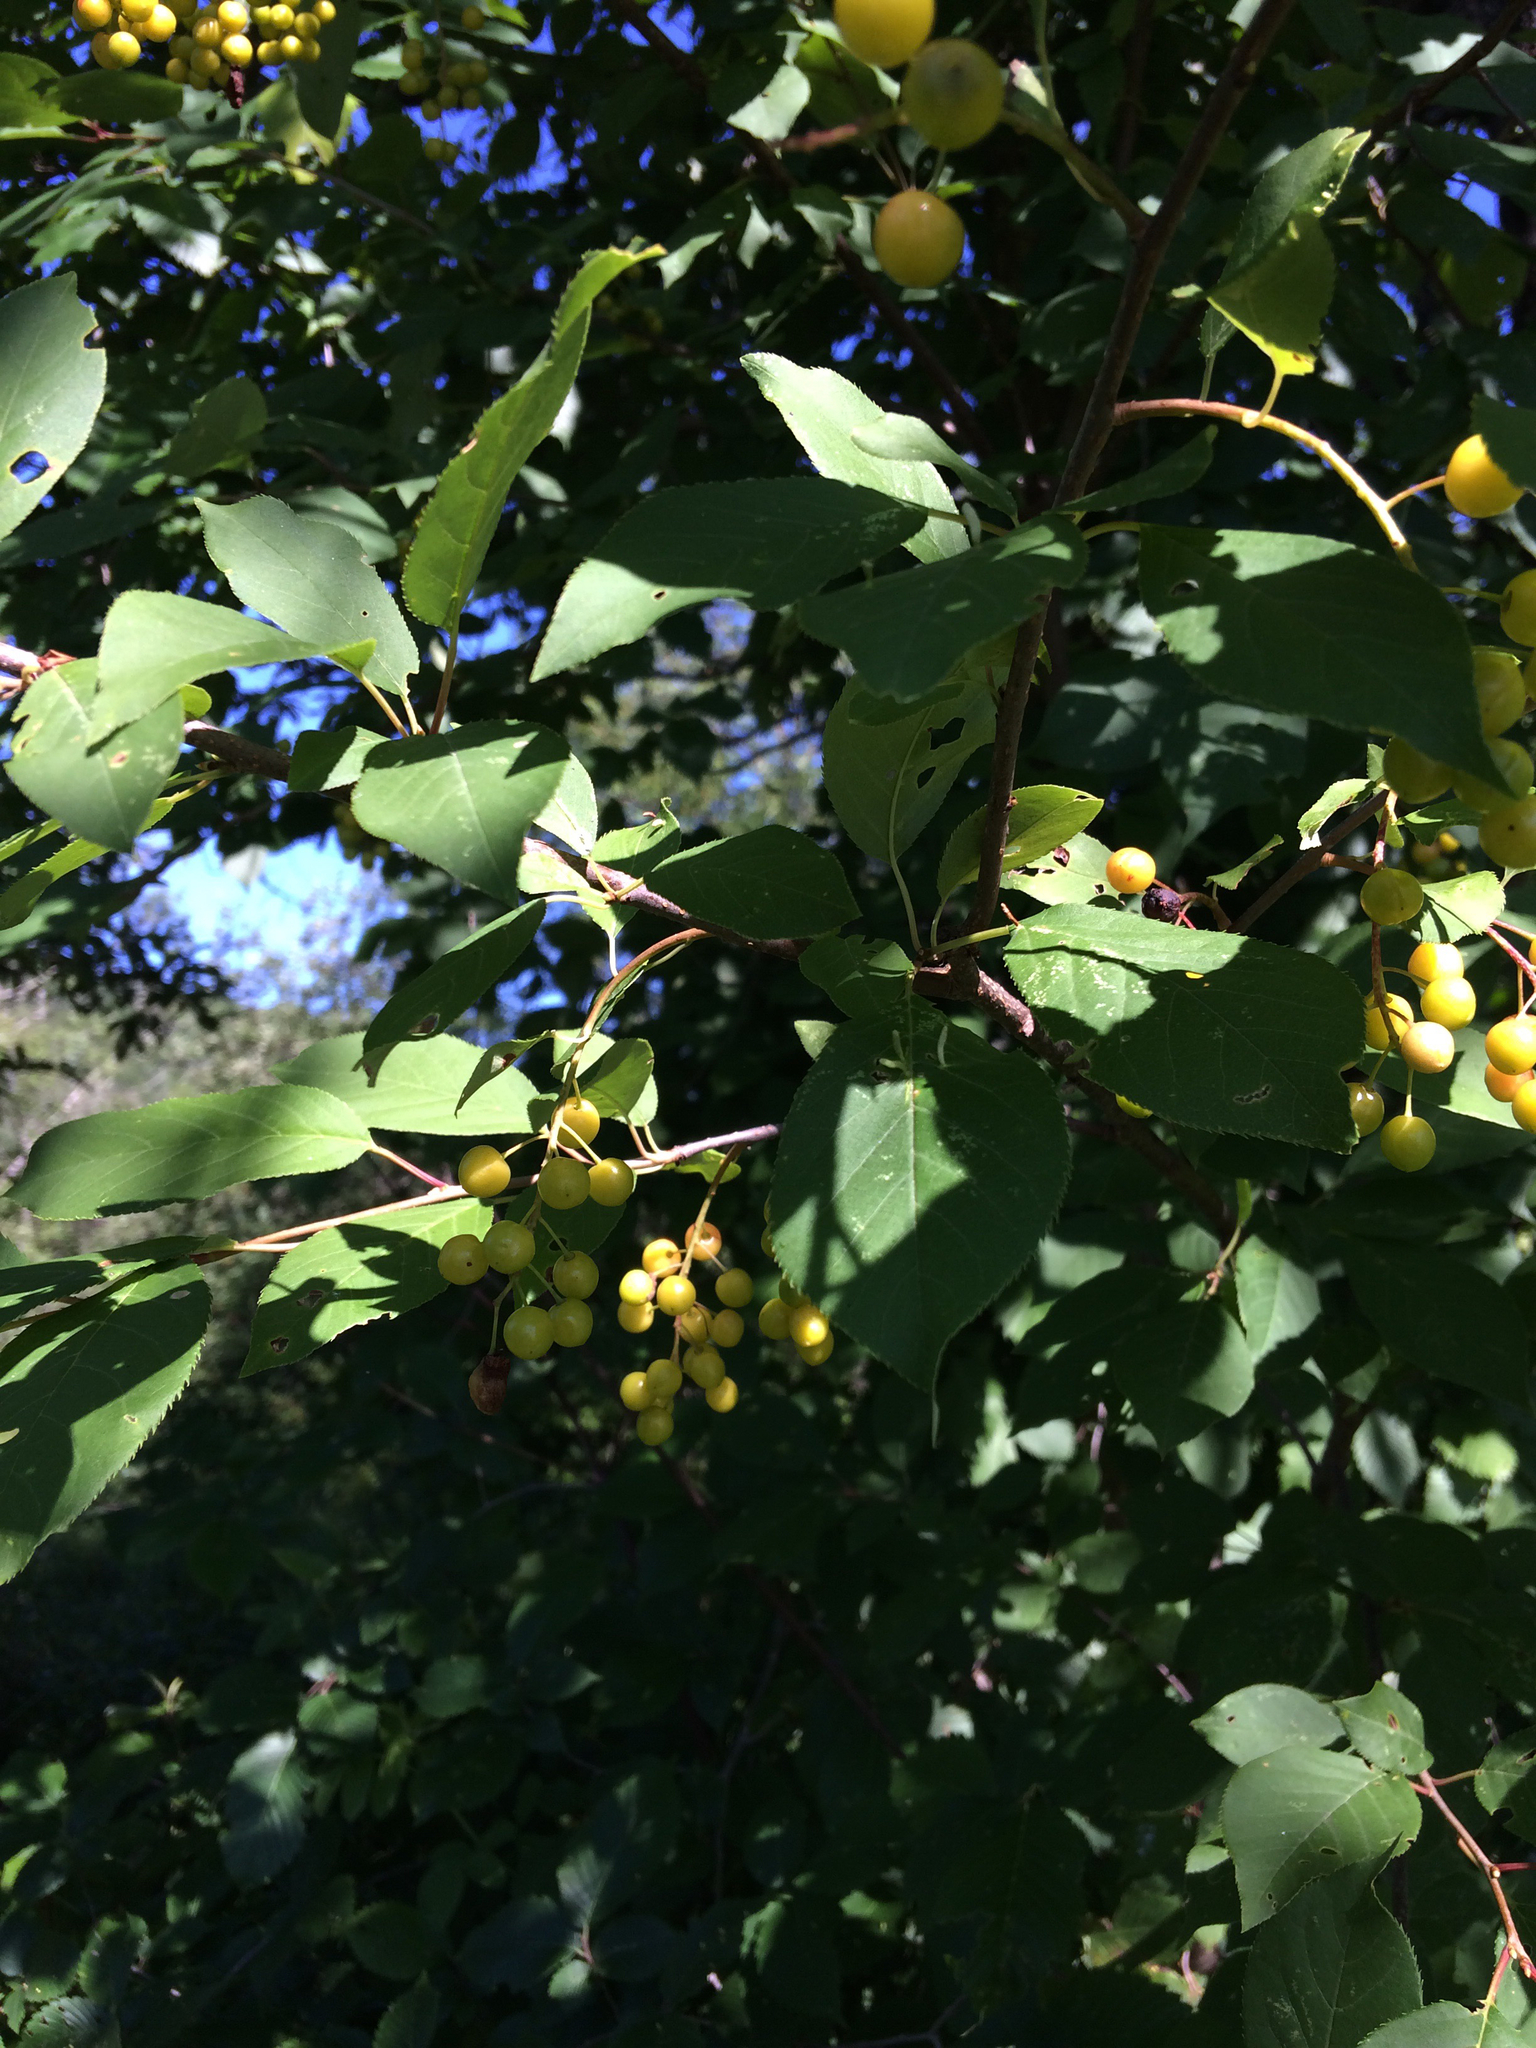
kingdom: Plantae
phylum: Tracheophyta
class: Magnoliopsida
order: Rosales
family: Rosaceae
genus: Prunus
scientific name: Prunus virginiana
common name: Chokecherry
